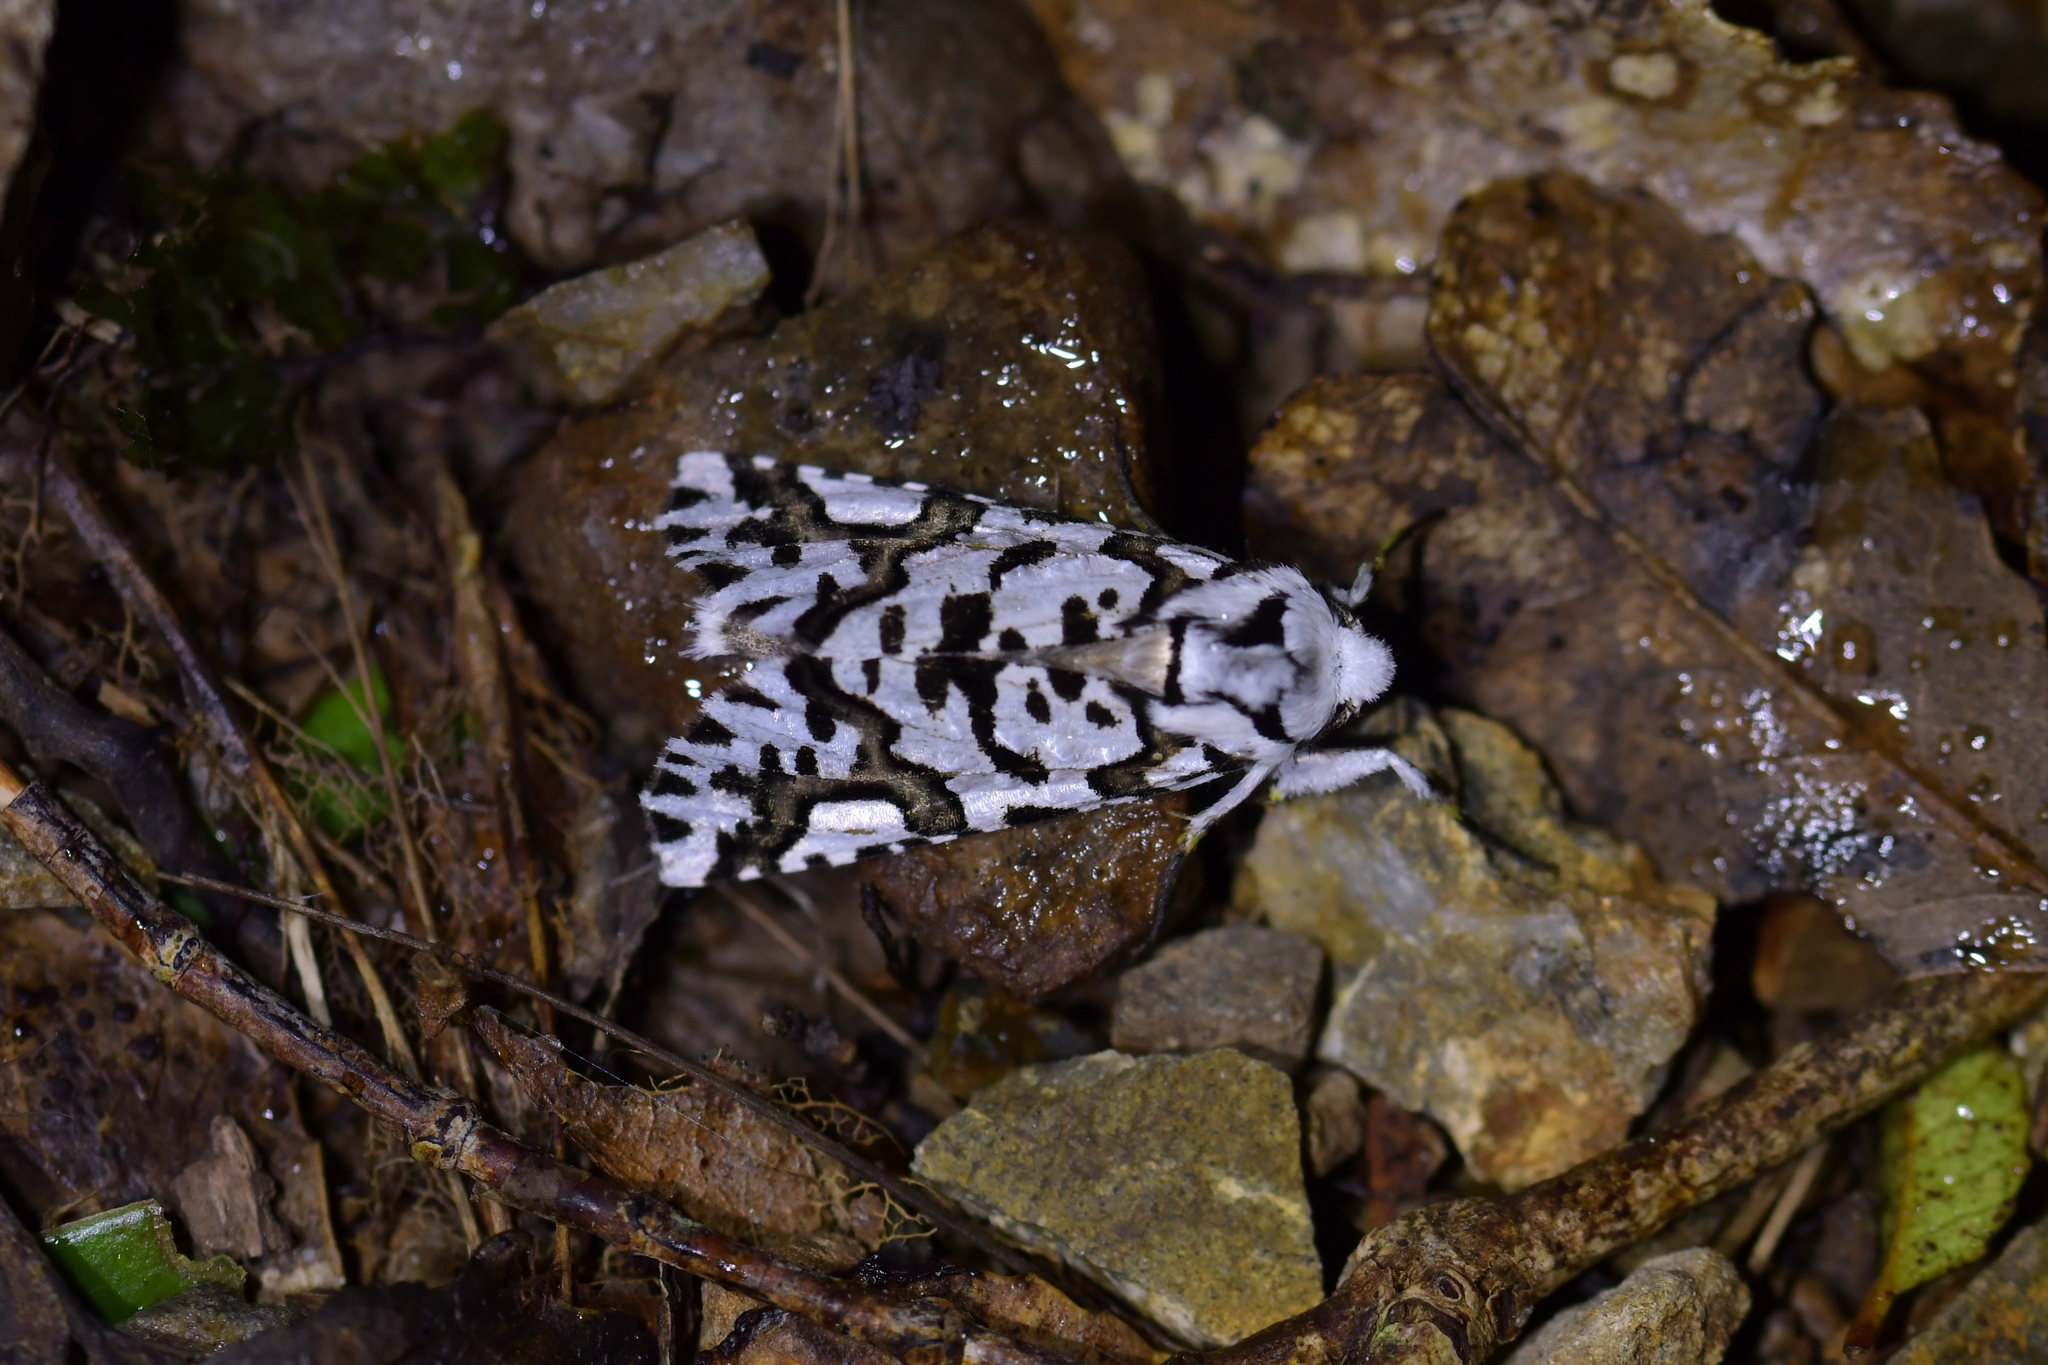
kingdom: Animalia
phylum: Arthropoda
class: Insecta
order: Lepidoptera
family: Geometridae
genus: Declana
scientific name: Declana
